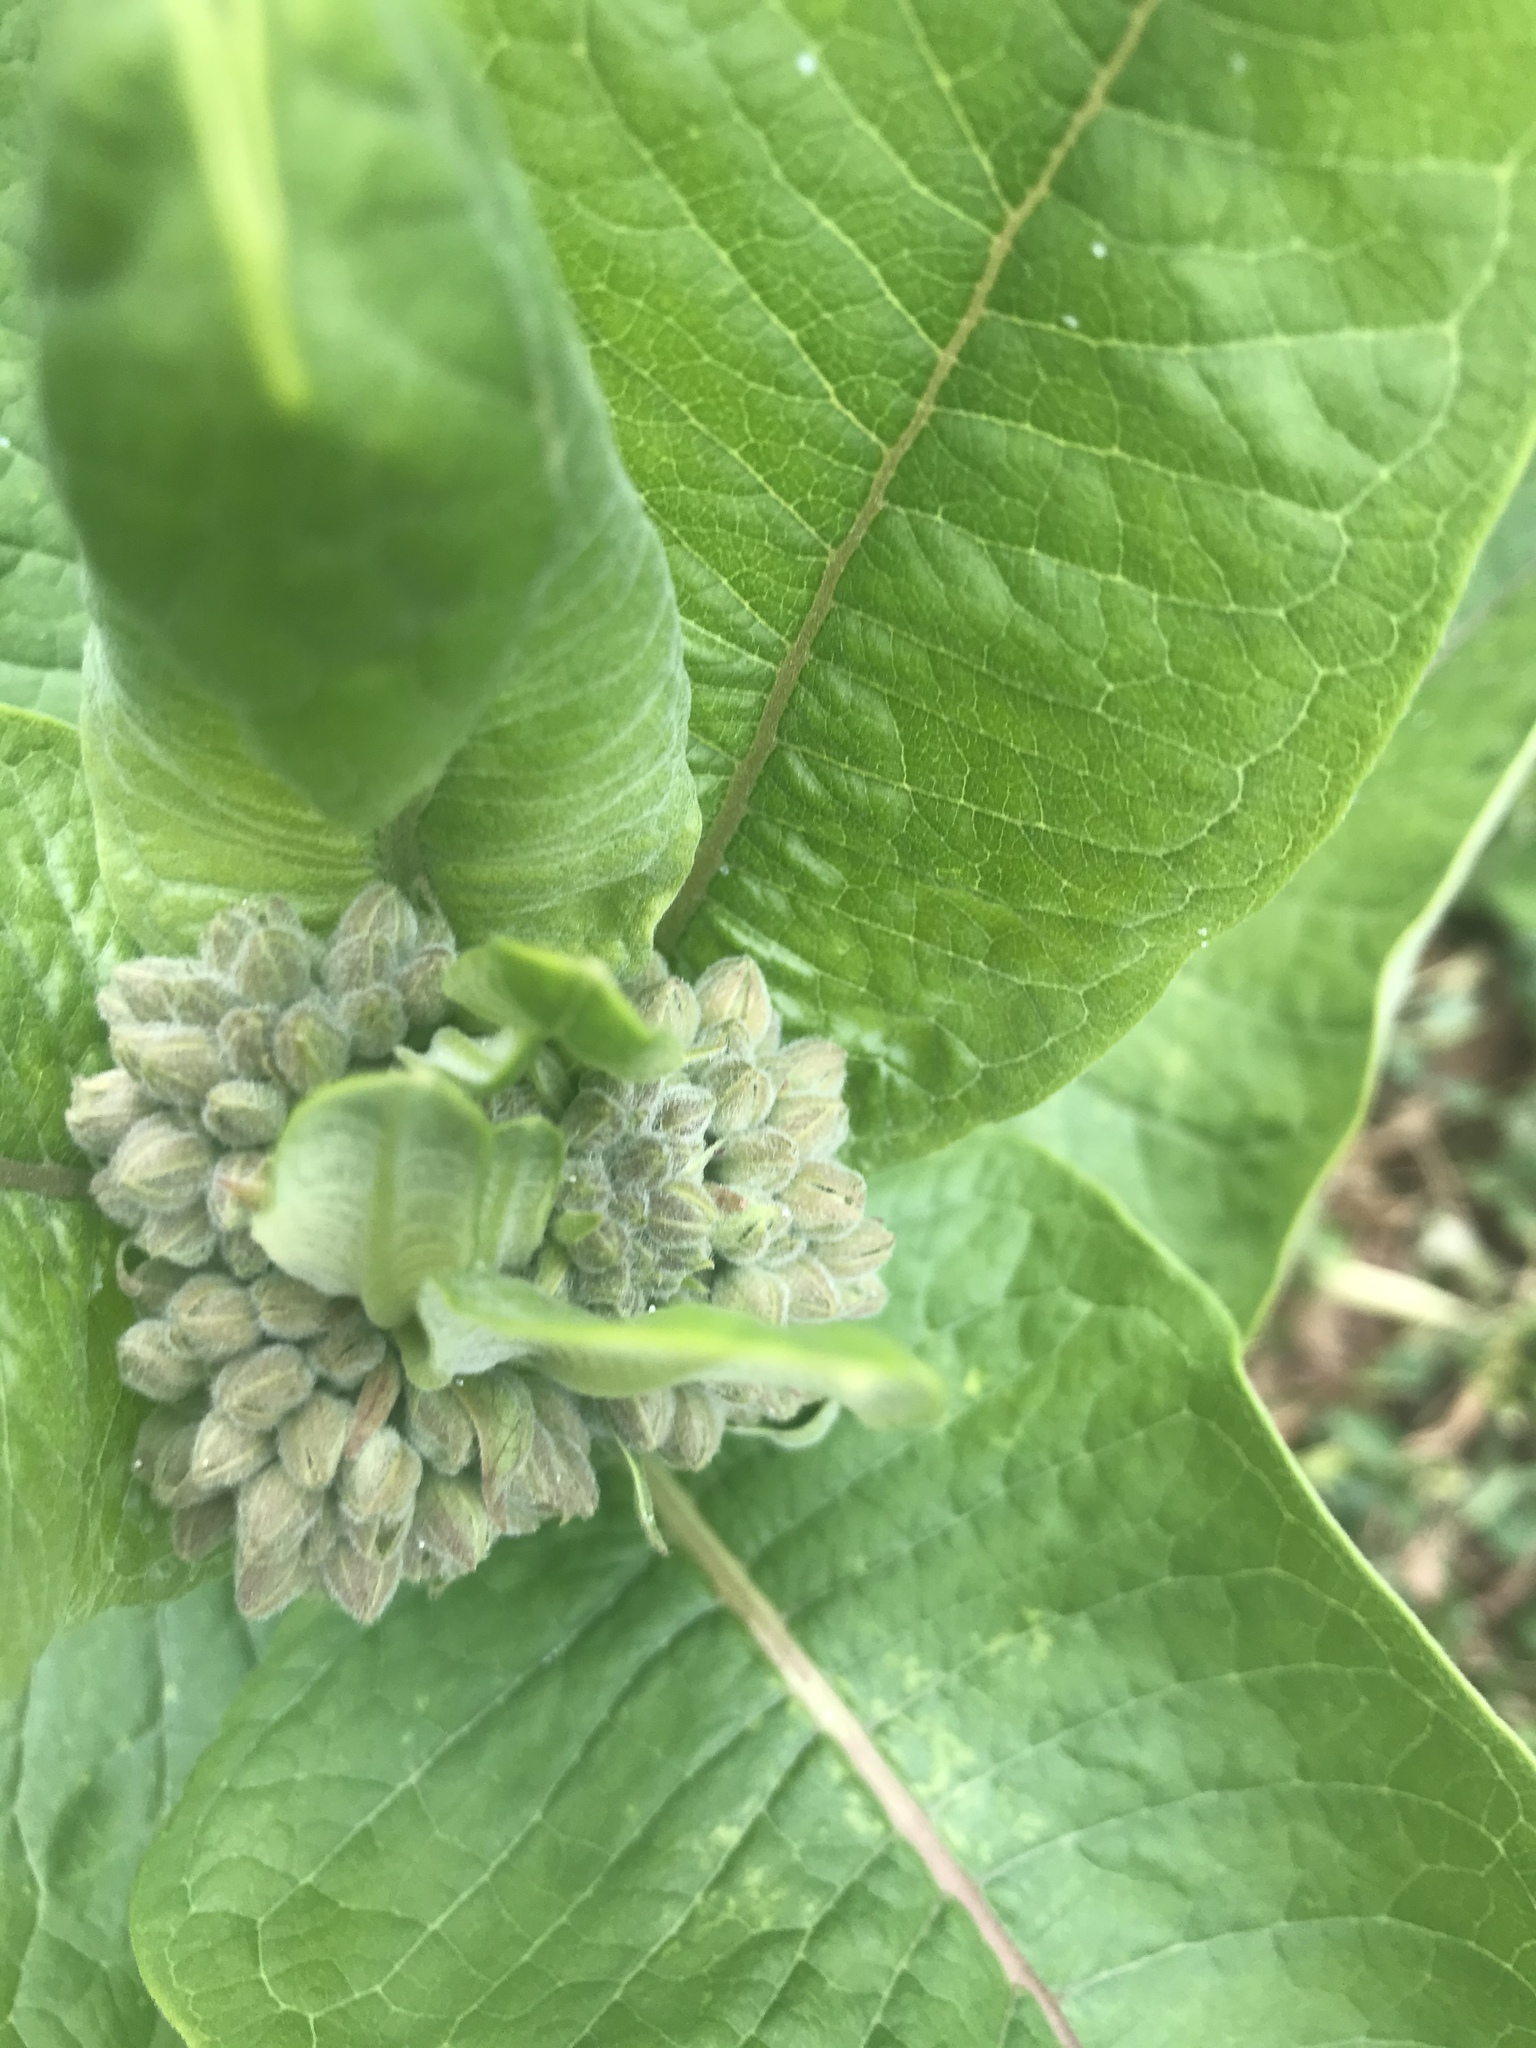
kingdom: Plantae
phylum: Tracheophyta
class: Magnoliopsida
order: Gentianales
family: Apocynaceae
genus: Asclepias
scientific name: Asclepias syriaca
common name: Common milkweed
